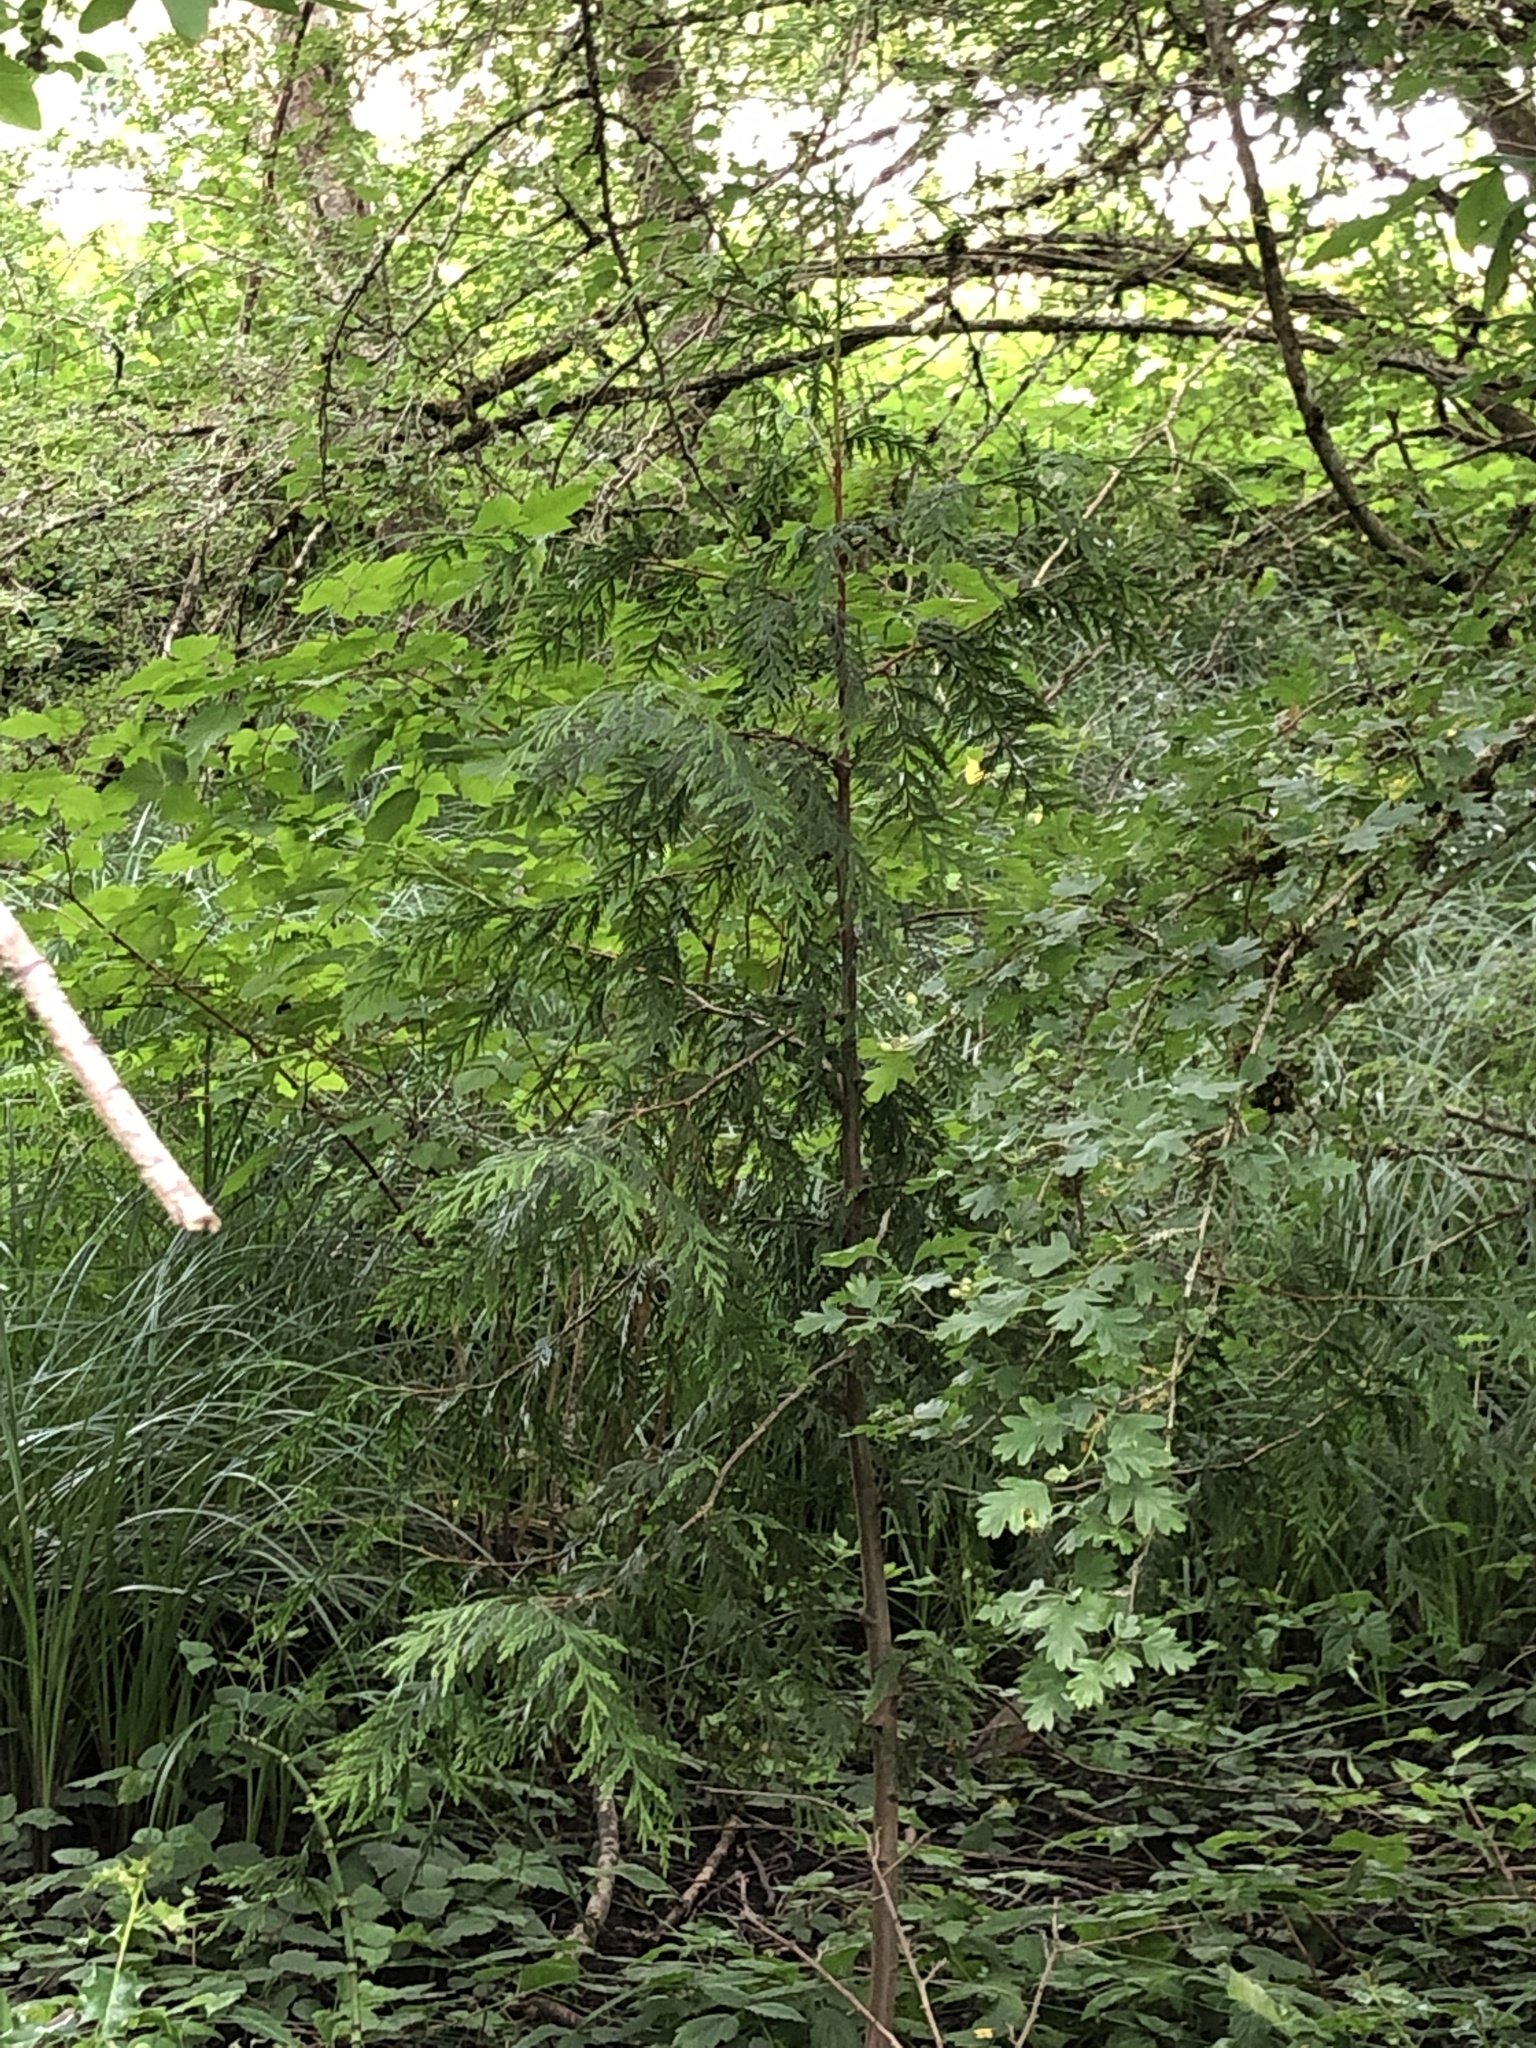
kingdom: Plantae
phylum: Tracheophyta
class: Pinopsida
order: Pinales
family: Cupressaceae
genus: Thuja
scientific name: Thuja plicata
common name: Western red-cedar
